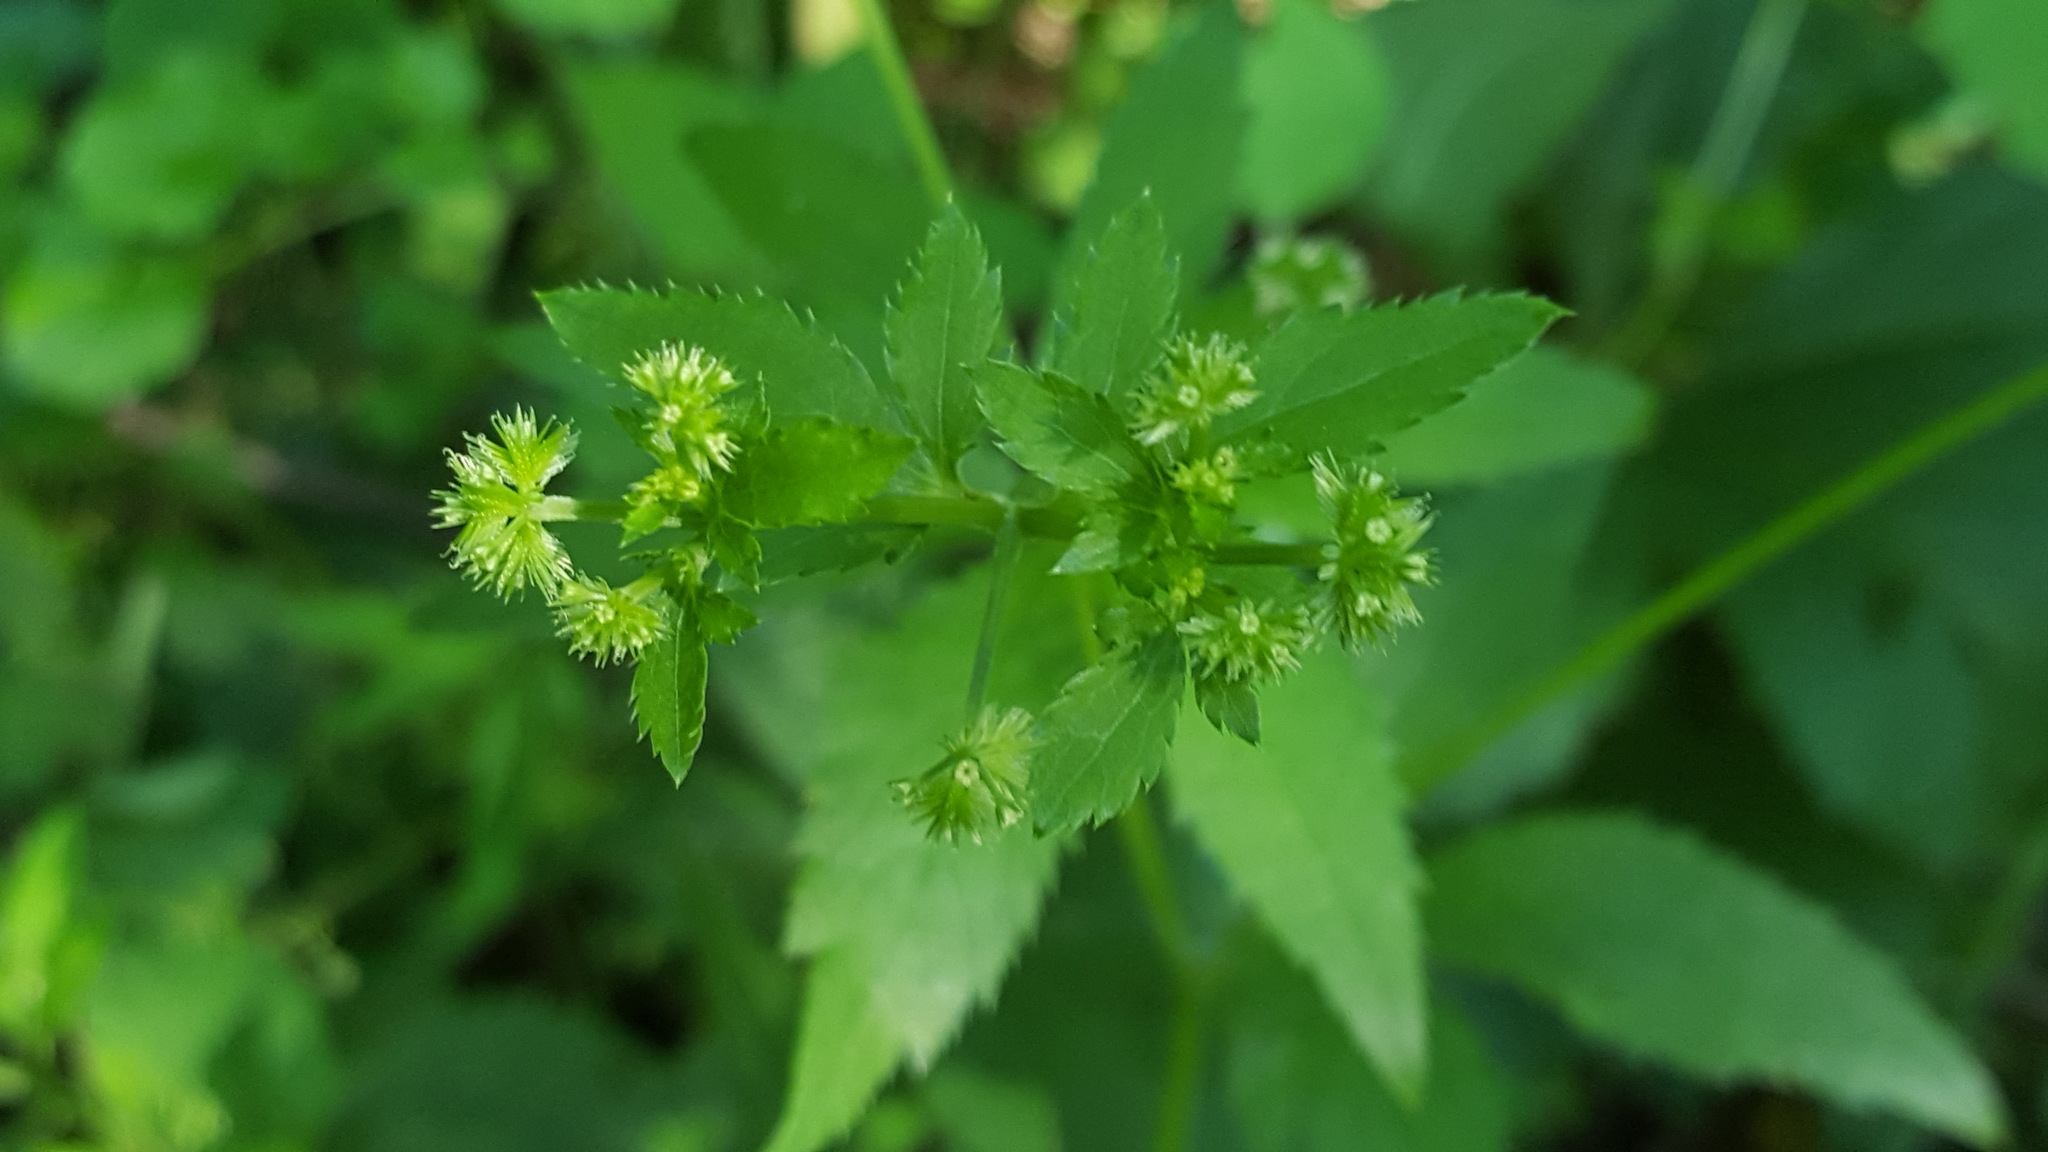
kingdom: Plantae
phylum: Tracheophyta
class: Magnoliopsida
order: Apiales
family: Apiaceae
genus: Sanicula
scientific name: Sanicula canadensis
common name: Canada sanicle
